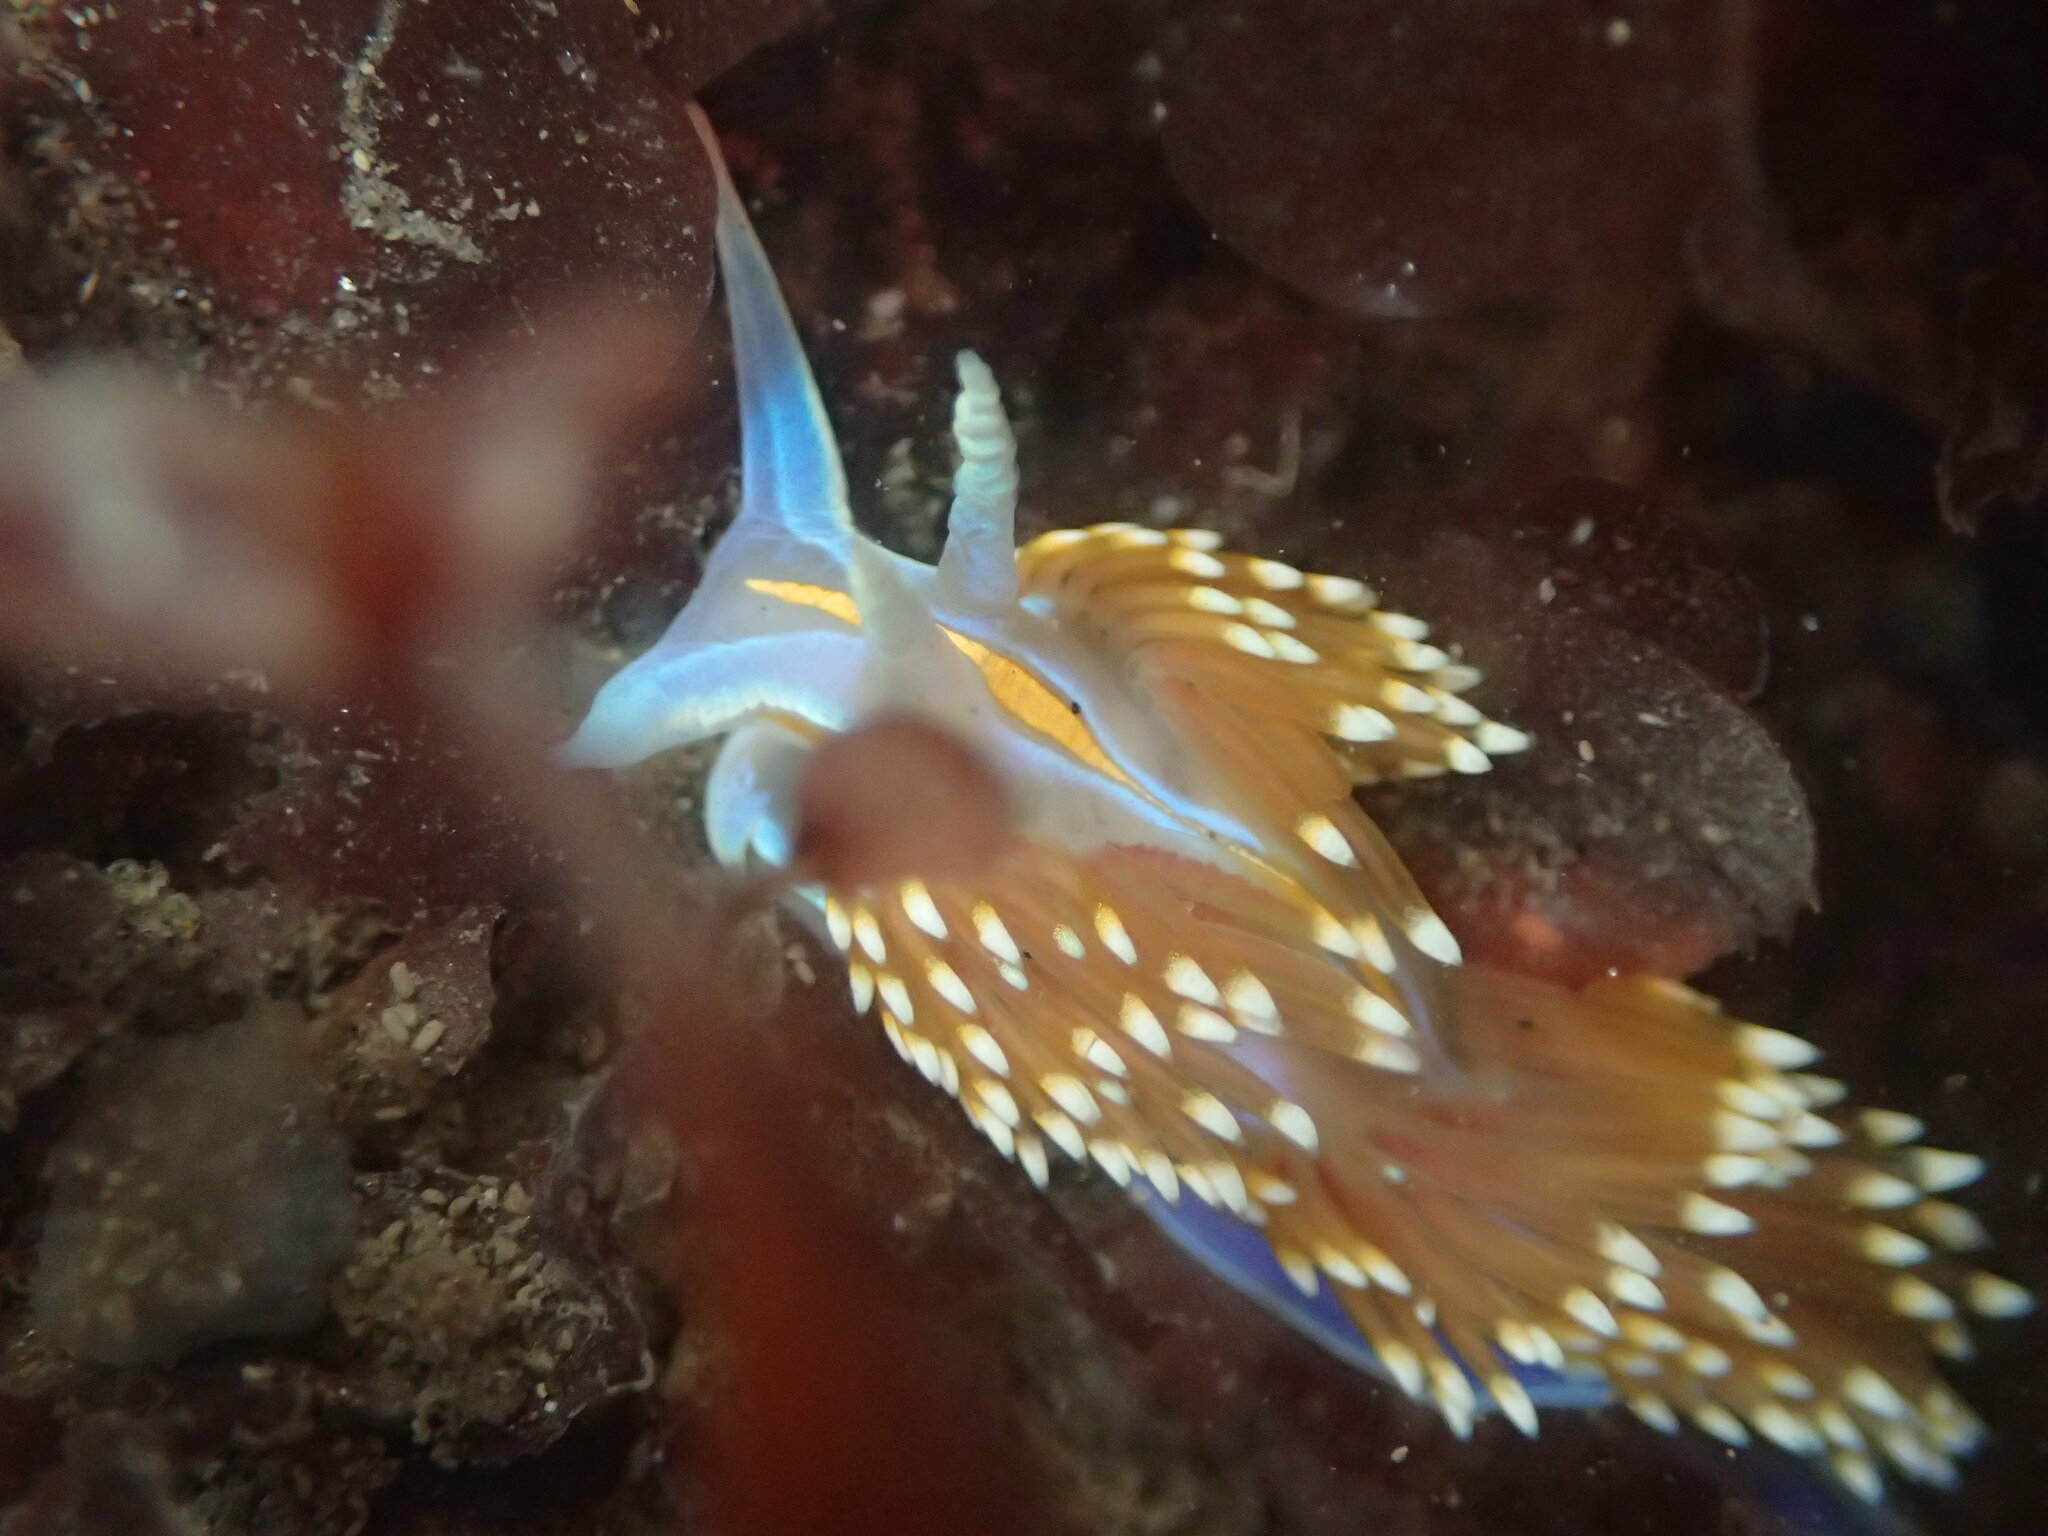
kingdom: Animalia
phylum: Mollusca
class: Gastropoda
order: Nudibranchia
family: Myrrhinidae
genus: Hermissenda
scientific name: Hermissenda opalescens
